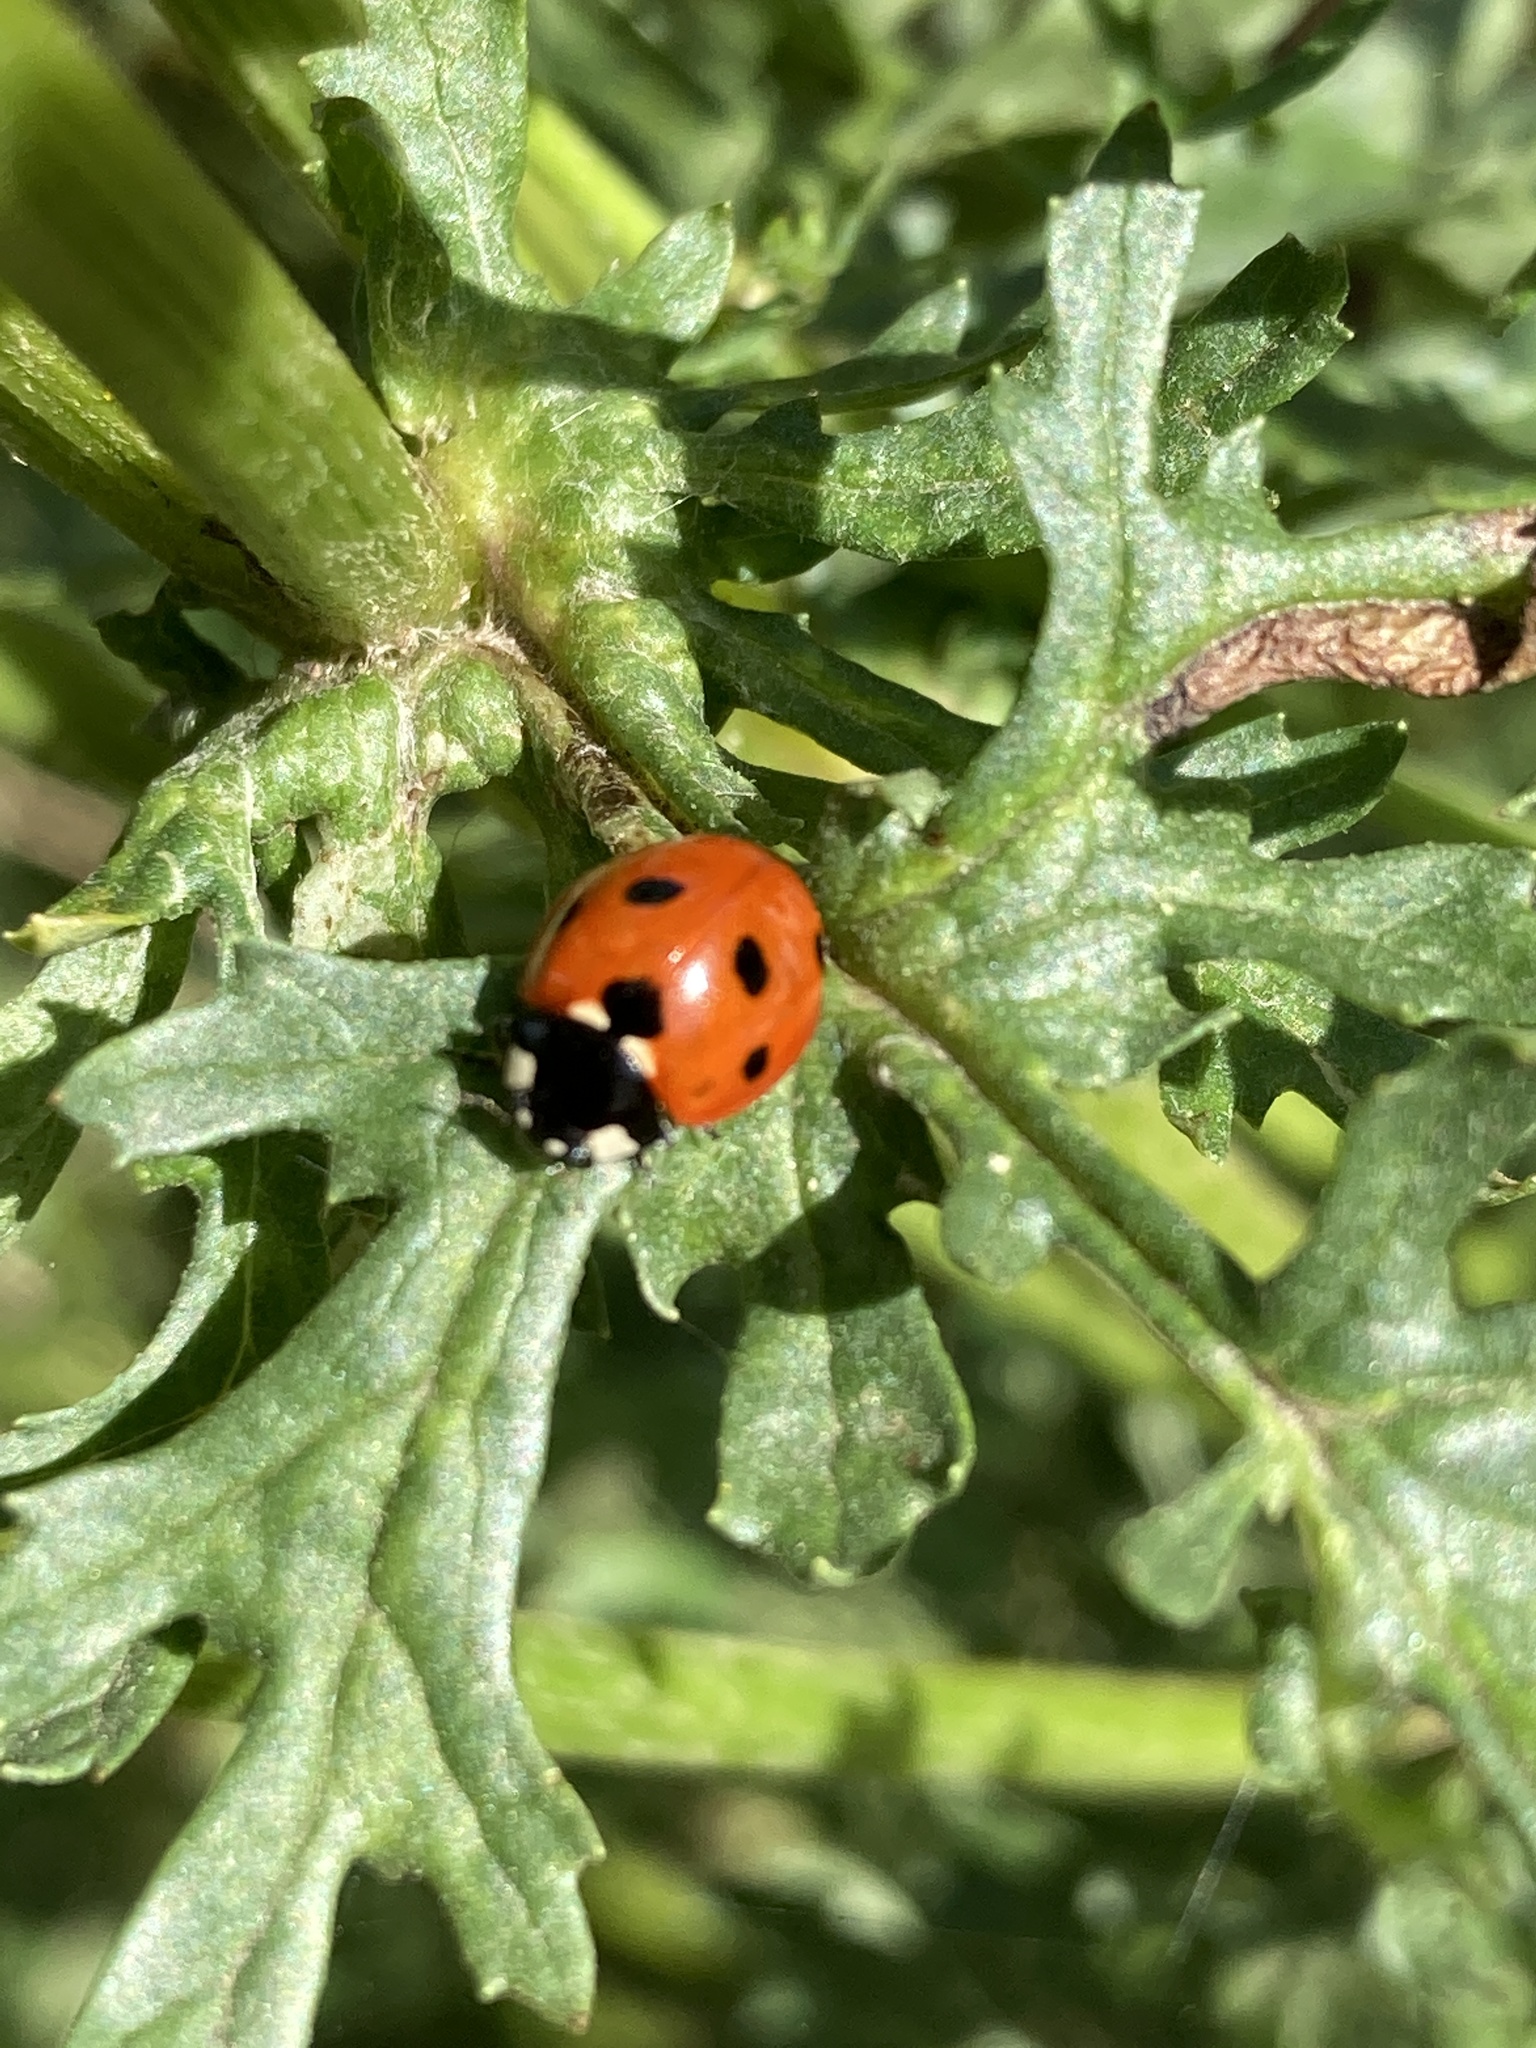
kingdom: Animalia
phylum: Arthropoda
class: Insecta
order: Coleoptera
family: Coccinellidae
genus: Coccinella
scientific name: Coccinella septempunctata
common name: Sevenspotted lady beetle
